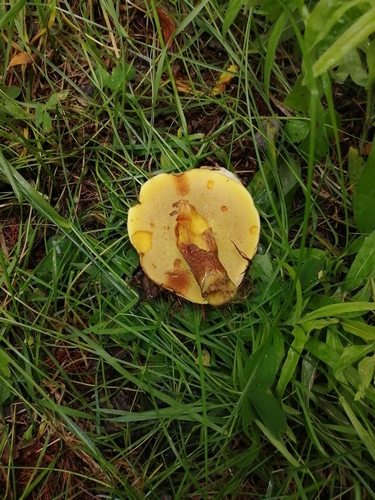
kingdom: Fungi
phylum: Basidiomycota
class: Agaricomycetes
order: Boletales
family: Suillaceae
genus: Suillus
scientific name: Suillus grevillei
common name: Larch bolete
